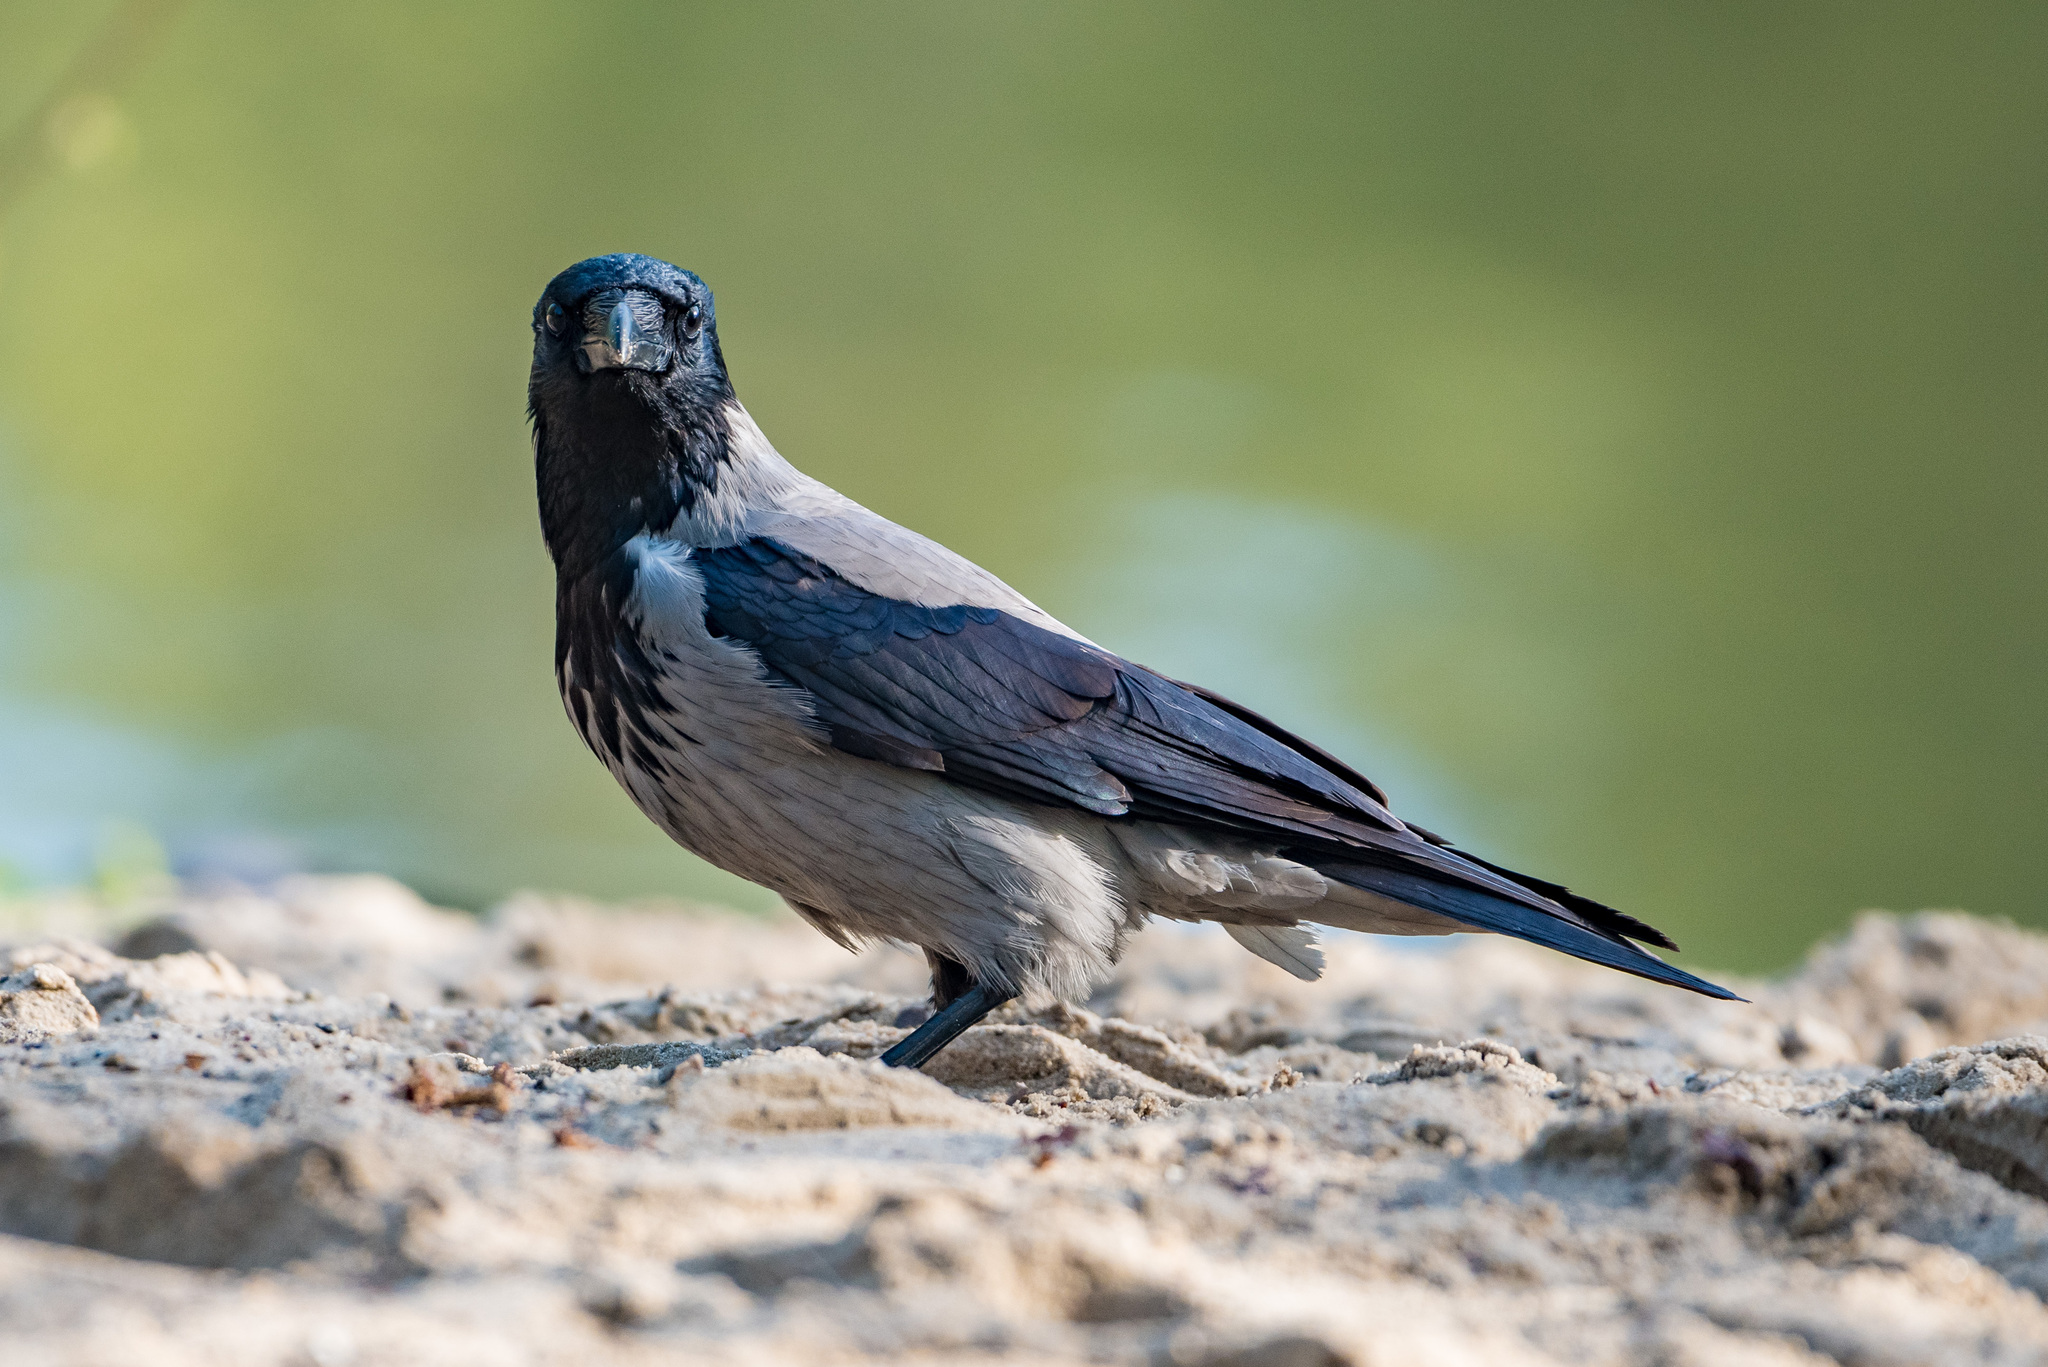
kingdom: Animalia
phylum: Chordata
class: Aves
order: Passeriformes
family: Corvidae
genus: Corvus
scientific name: Corvus cornix
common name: Hooded crow
